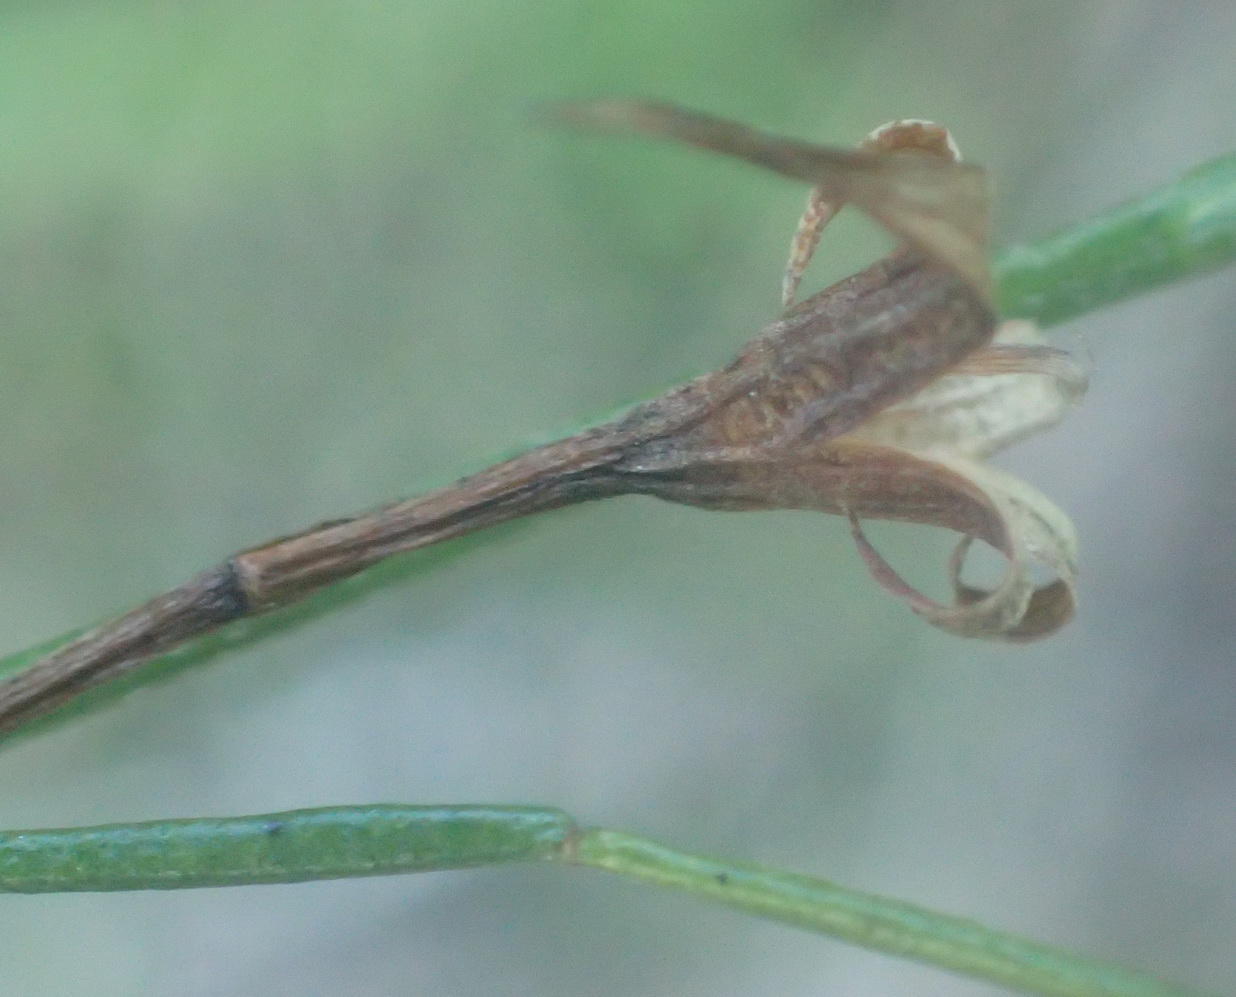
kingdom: Plantae
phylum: Tracheophyta
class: Magnoliopsida
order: Fabales
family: Fabaceae
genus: Psoralea
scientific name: Psoralea trullata
